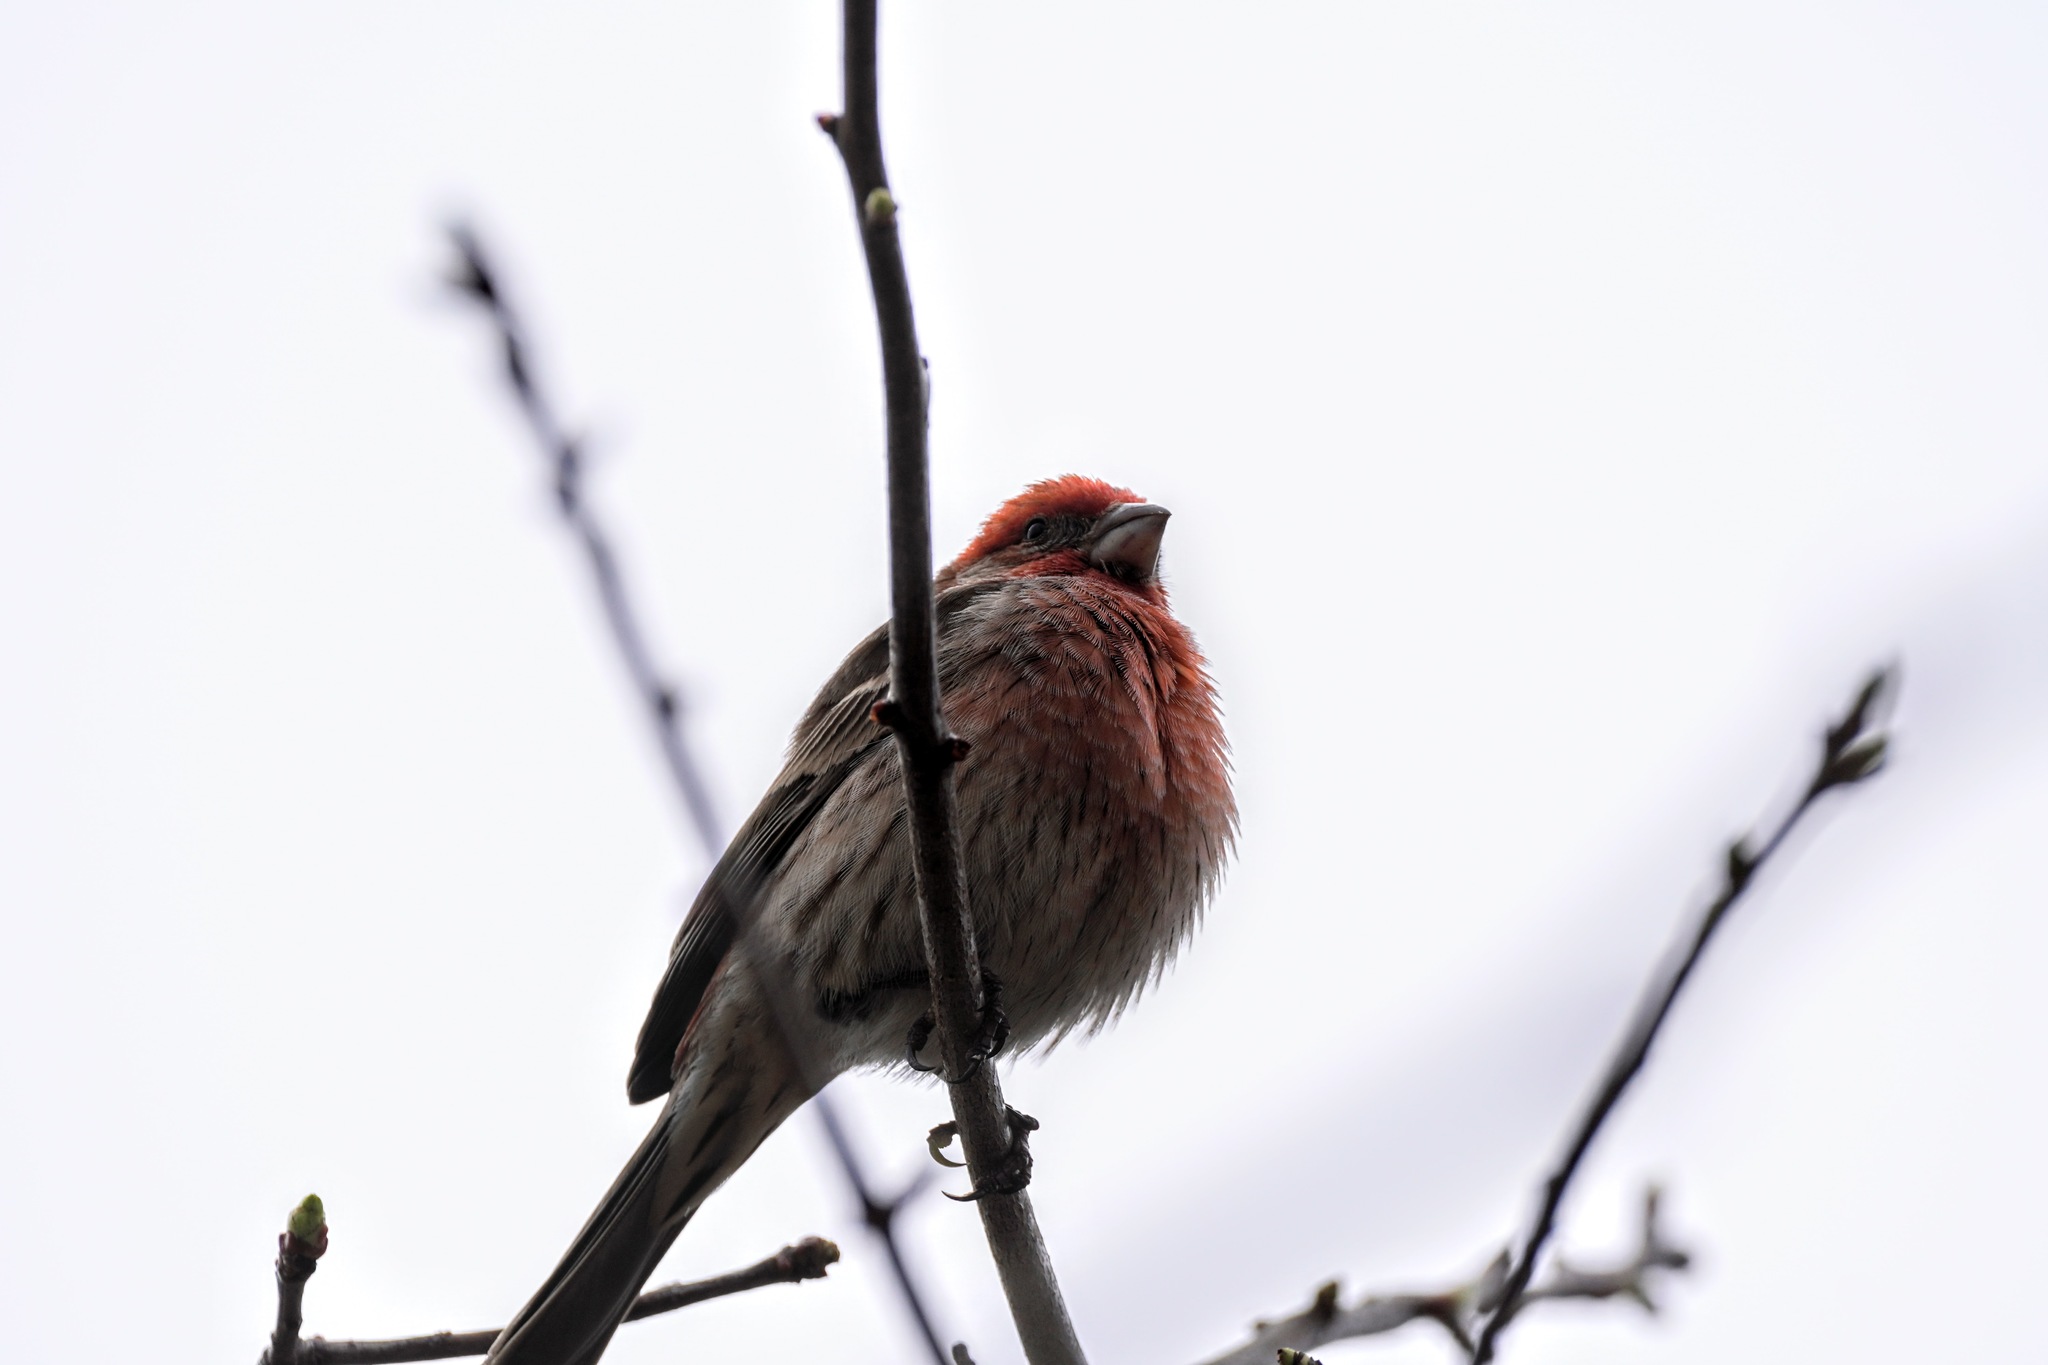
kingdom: Animalia
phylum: Chordata
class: Aves
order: Passeriformes
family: Fringillidae
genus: Haemorhous
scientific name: Haemorhous mexicanus
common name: House finch
